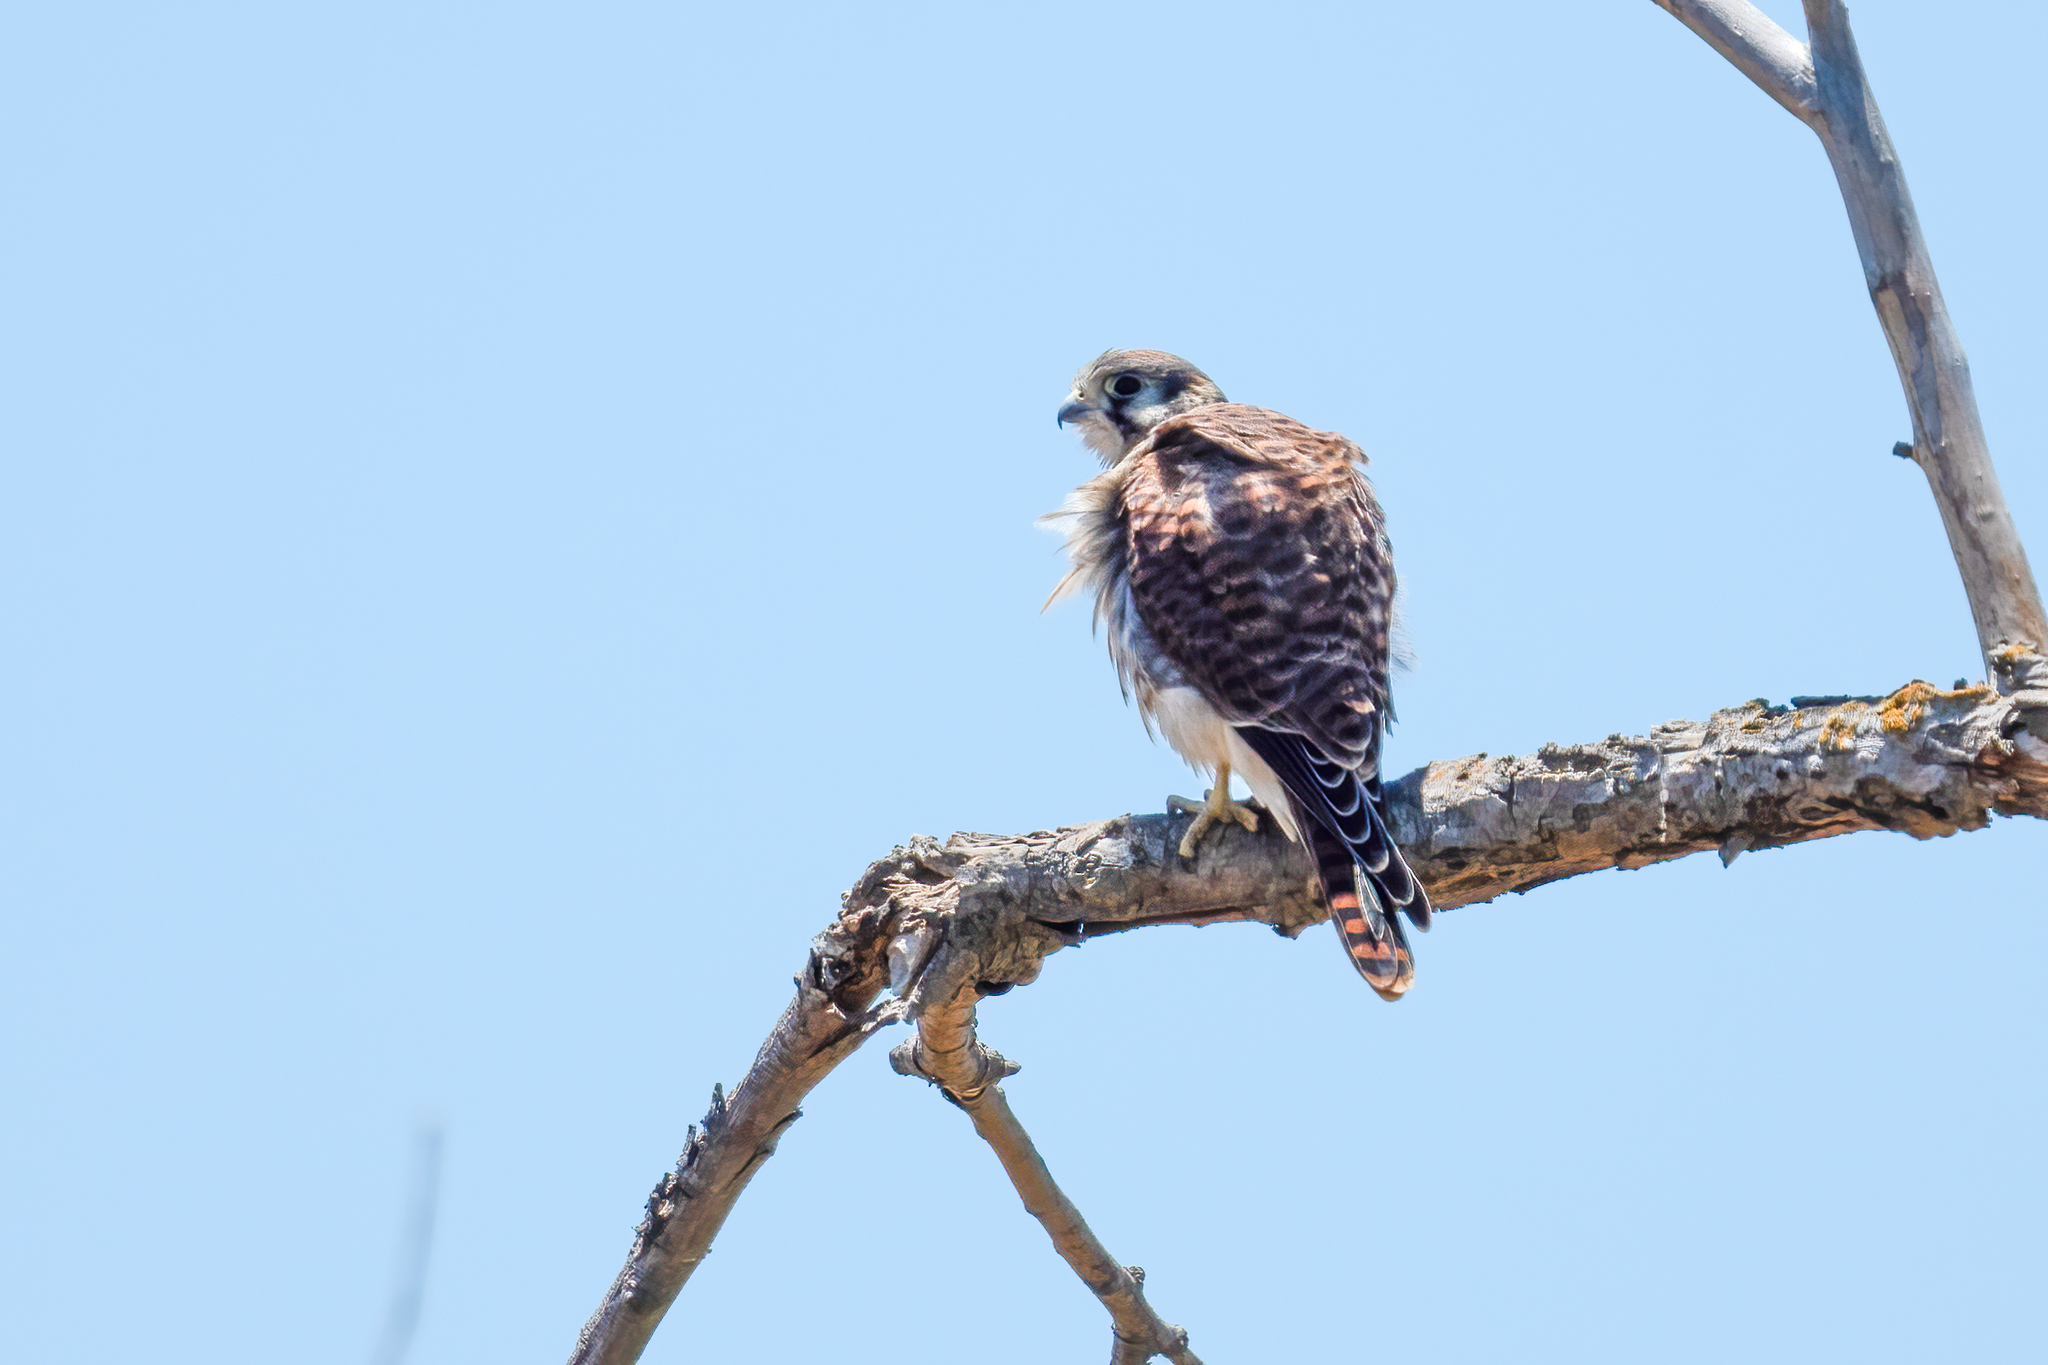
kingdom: Animalia
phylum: Chordata
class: Aves
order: Falconiformes
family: Falconidae
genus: Falco
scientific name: Falco sparverius
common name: American kestrel
